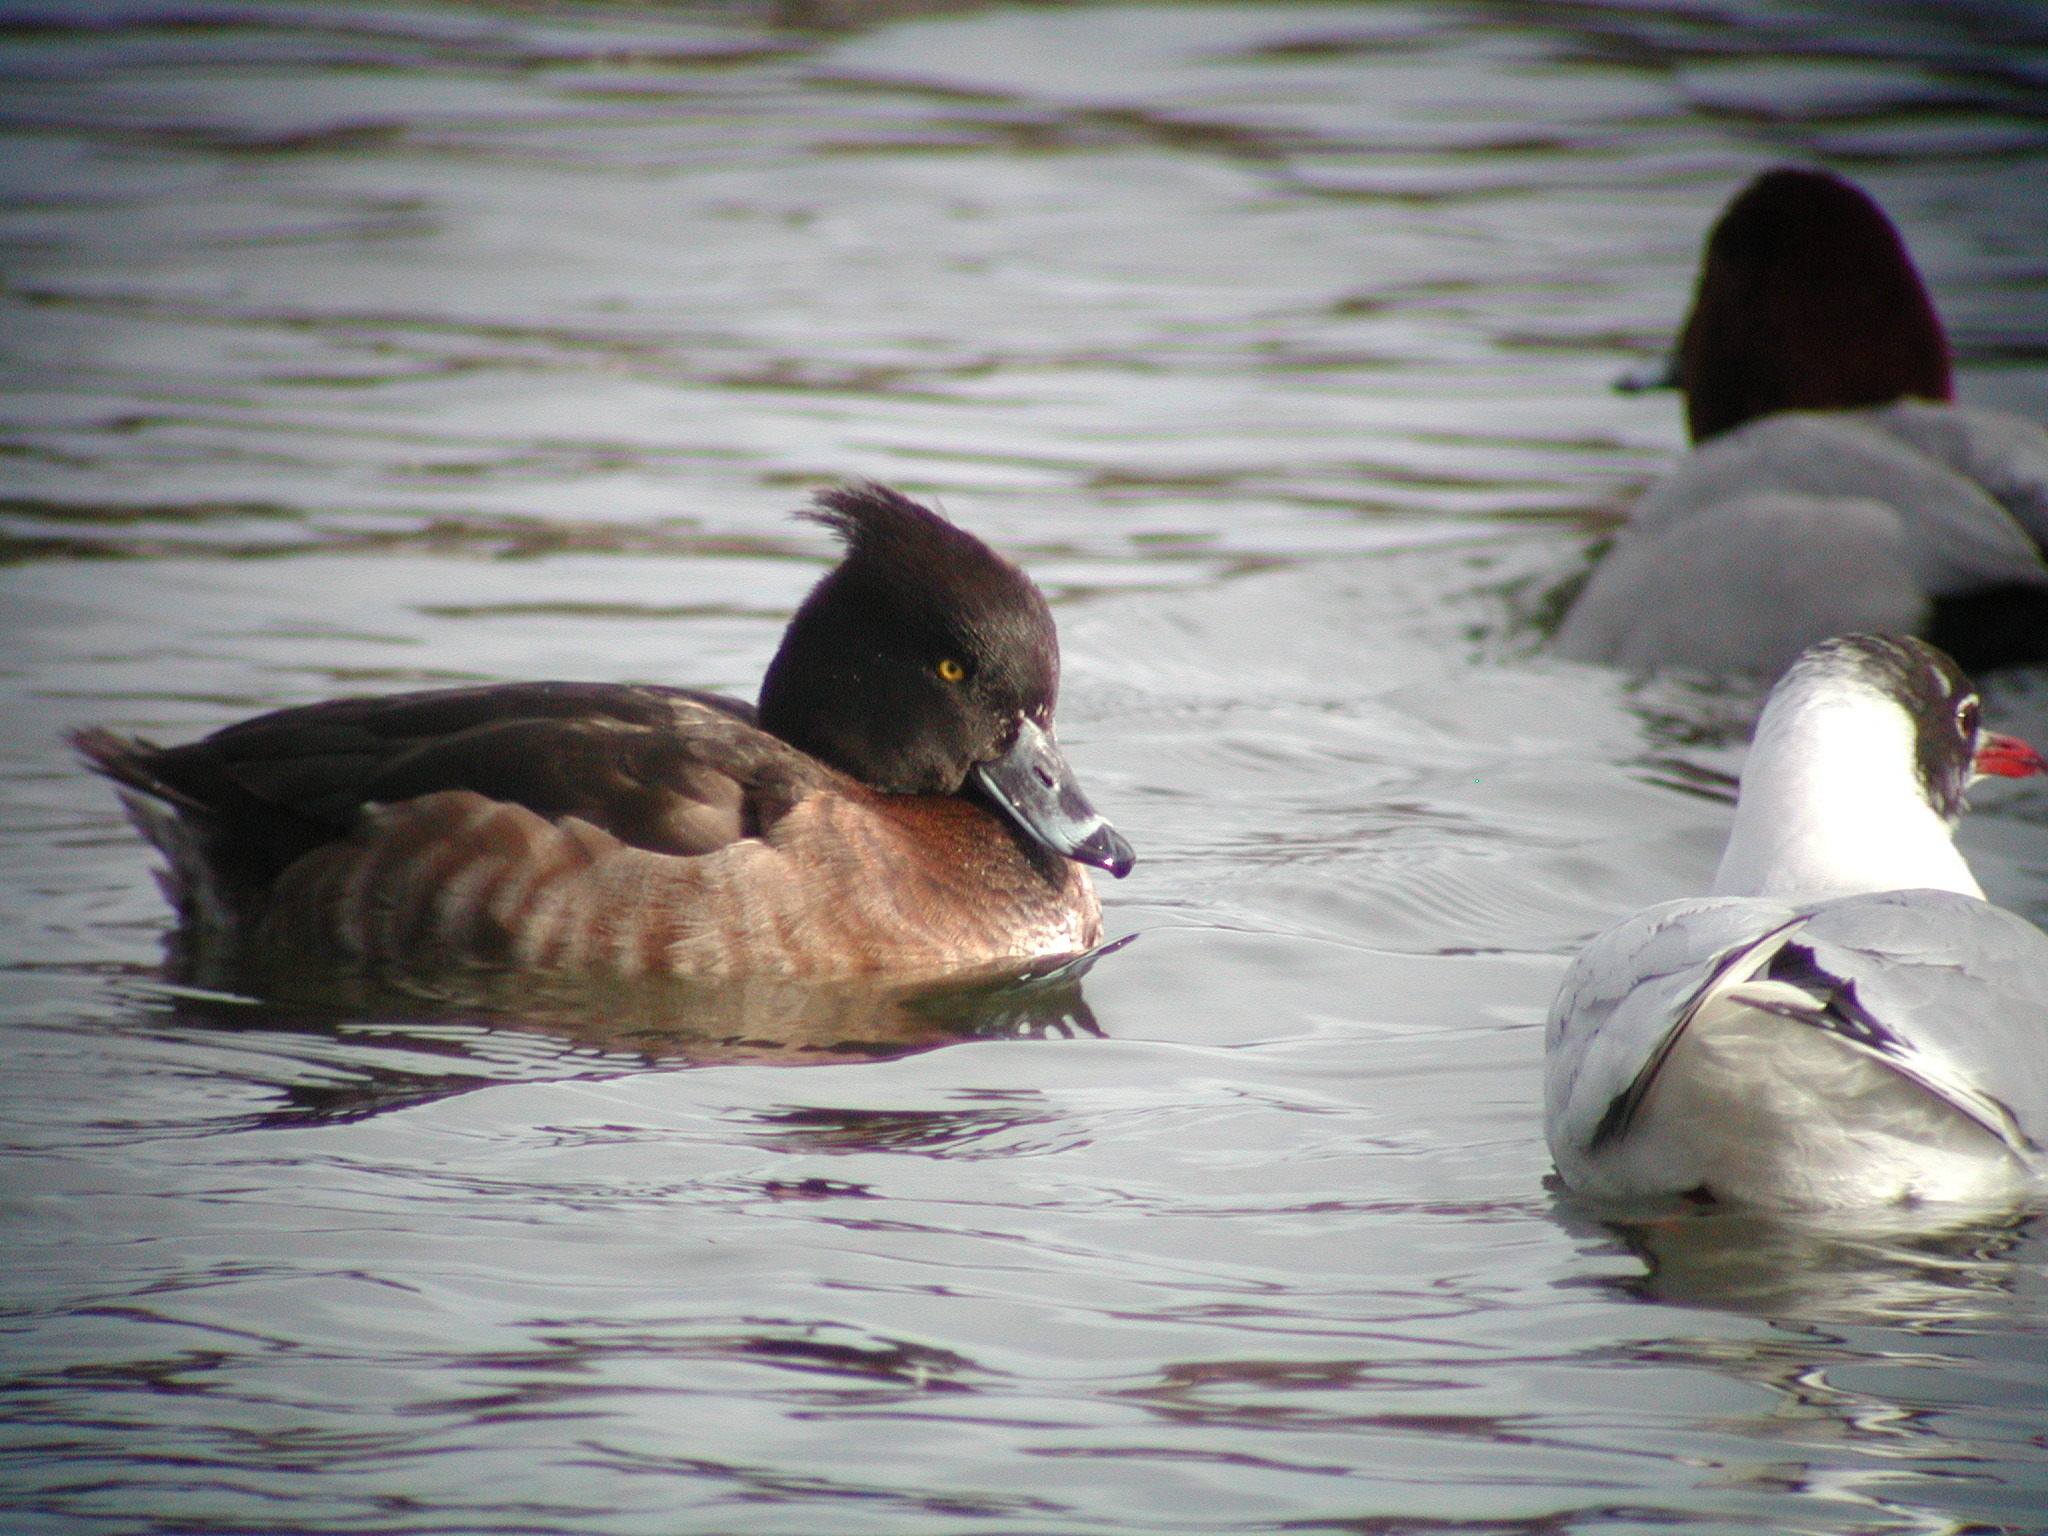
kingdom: Animalia
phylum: Chordata
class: Aves
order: Anseriformes
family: Anatidae
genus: Aythya
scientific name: Aythya fuligula
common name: Tufted duck
